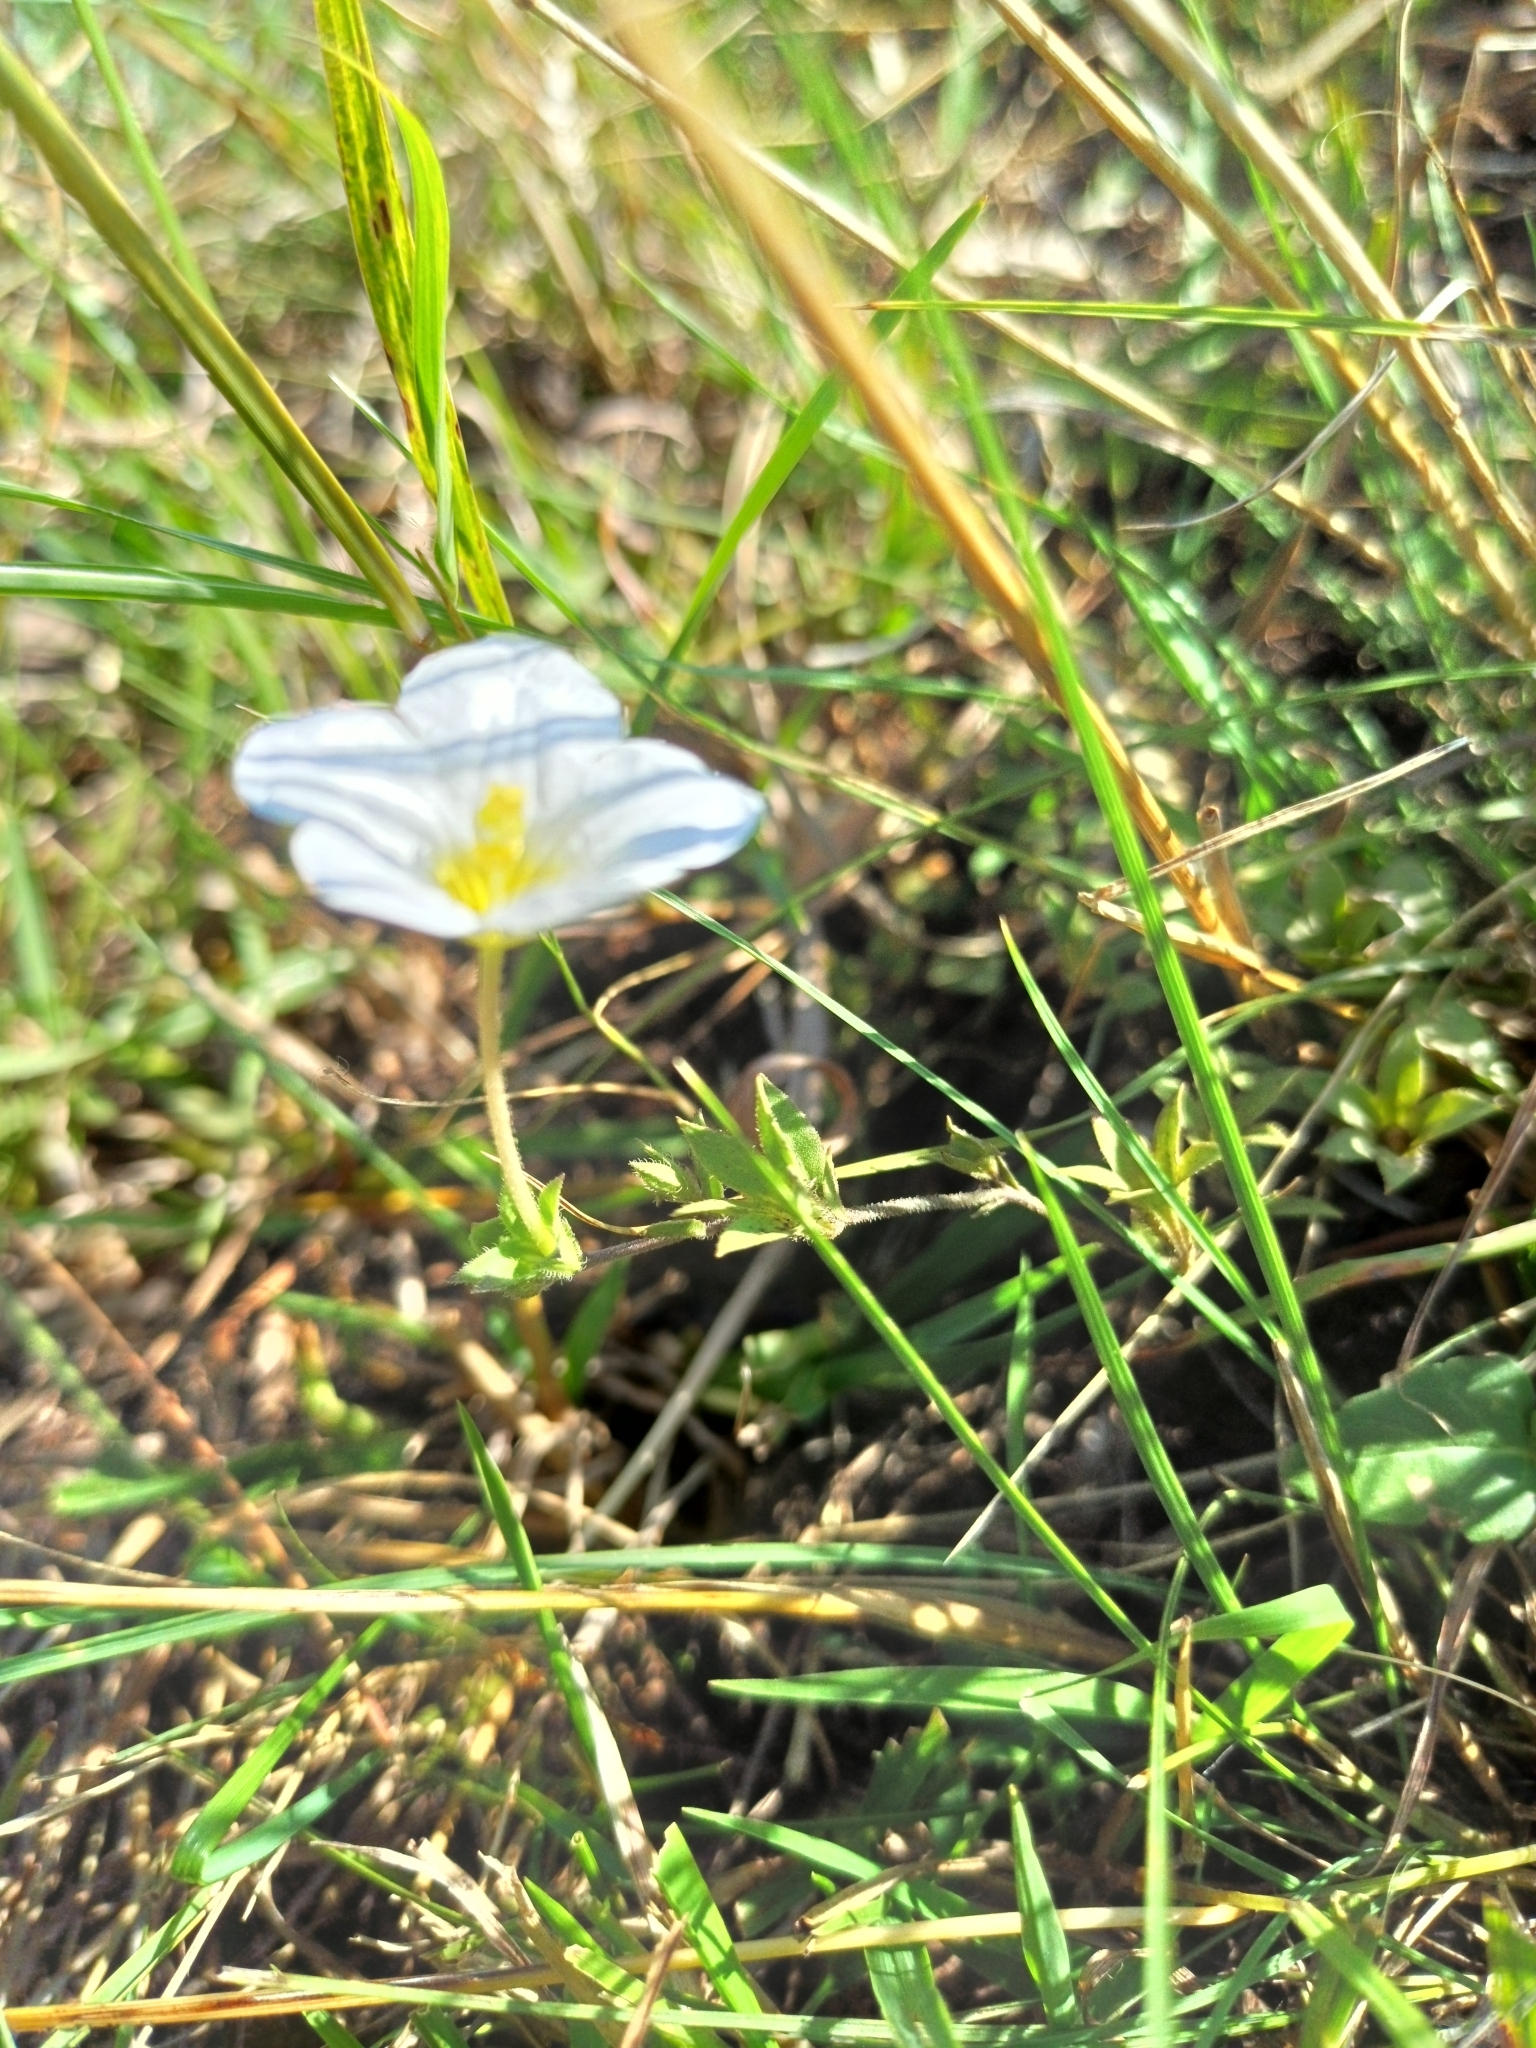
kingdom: Plantae
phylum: Tracheophyta
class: Magnoliopsida
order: Solanales
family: Solanaceae
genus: Nierembergia
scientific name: Nierembergia calycina
